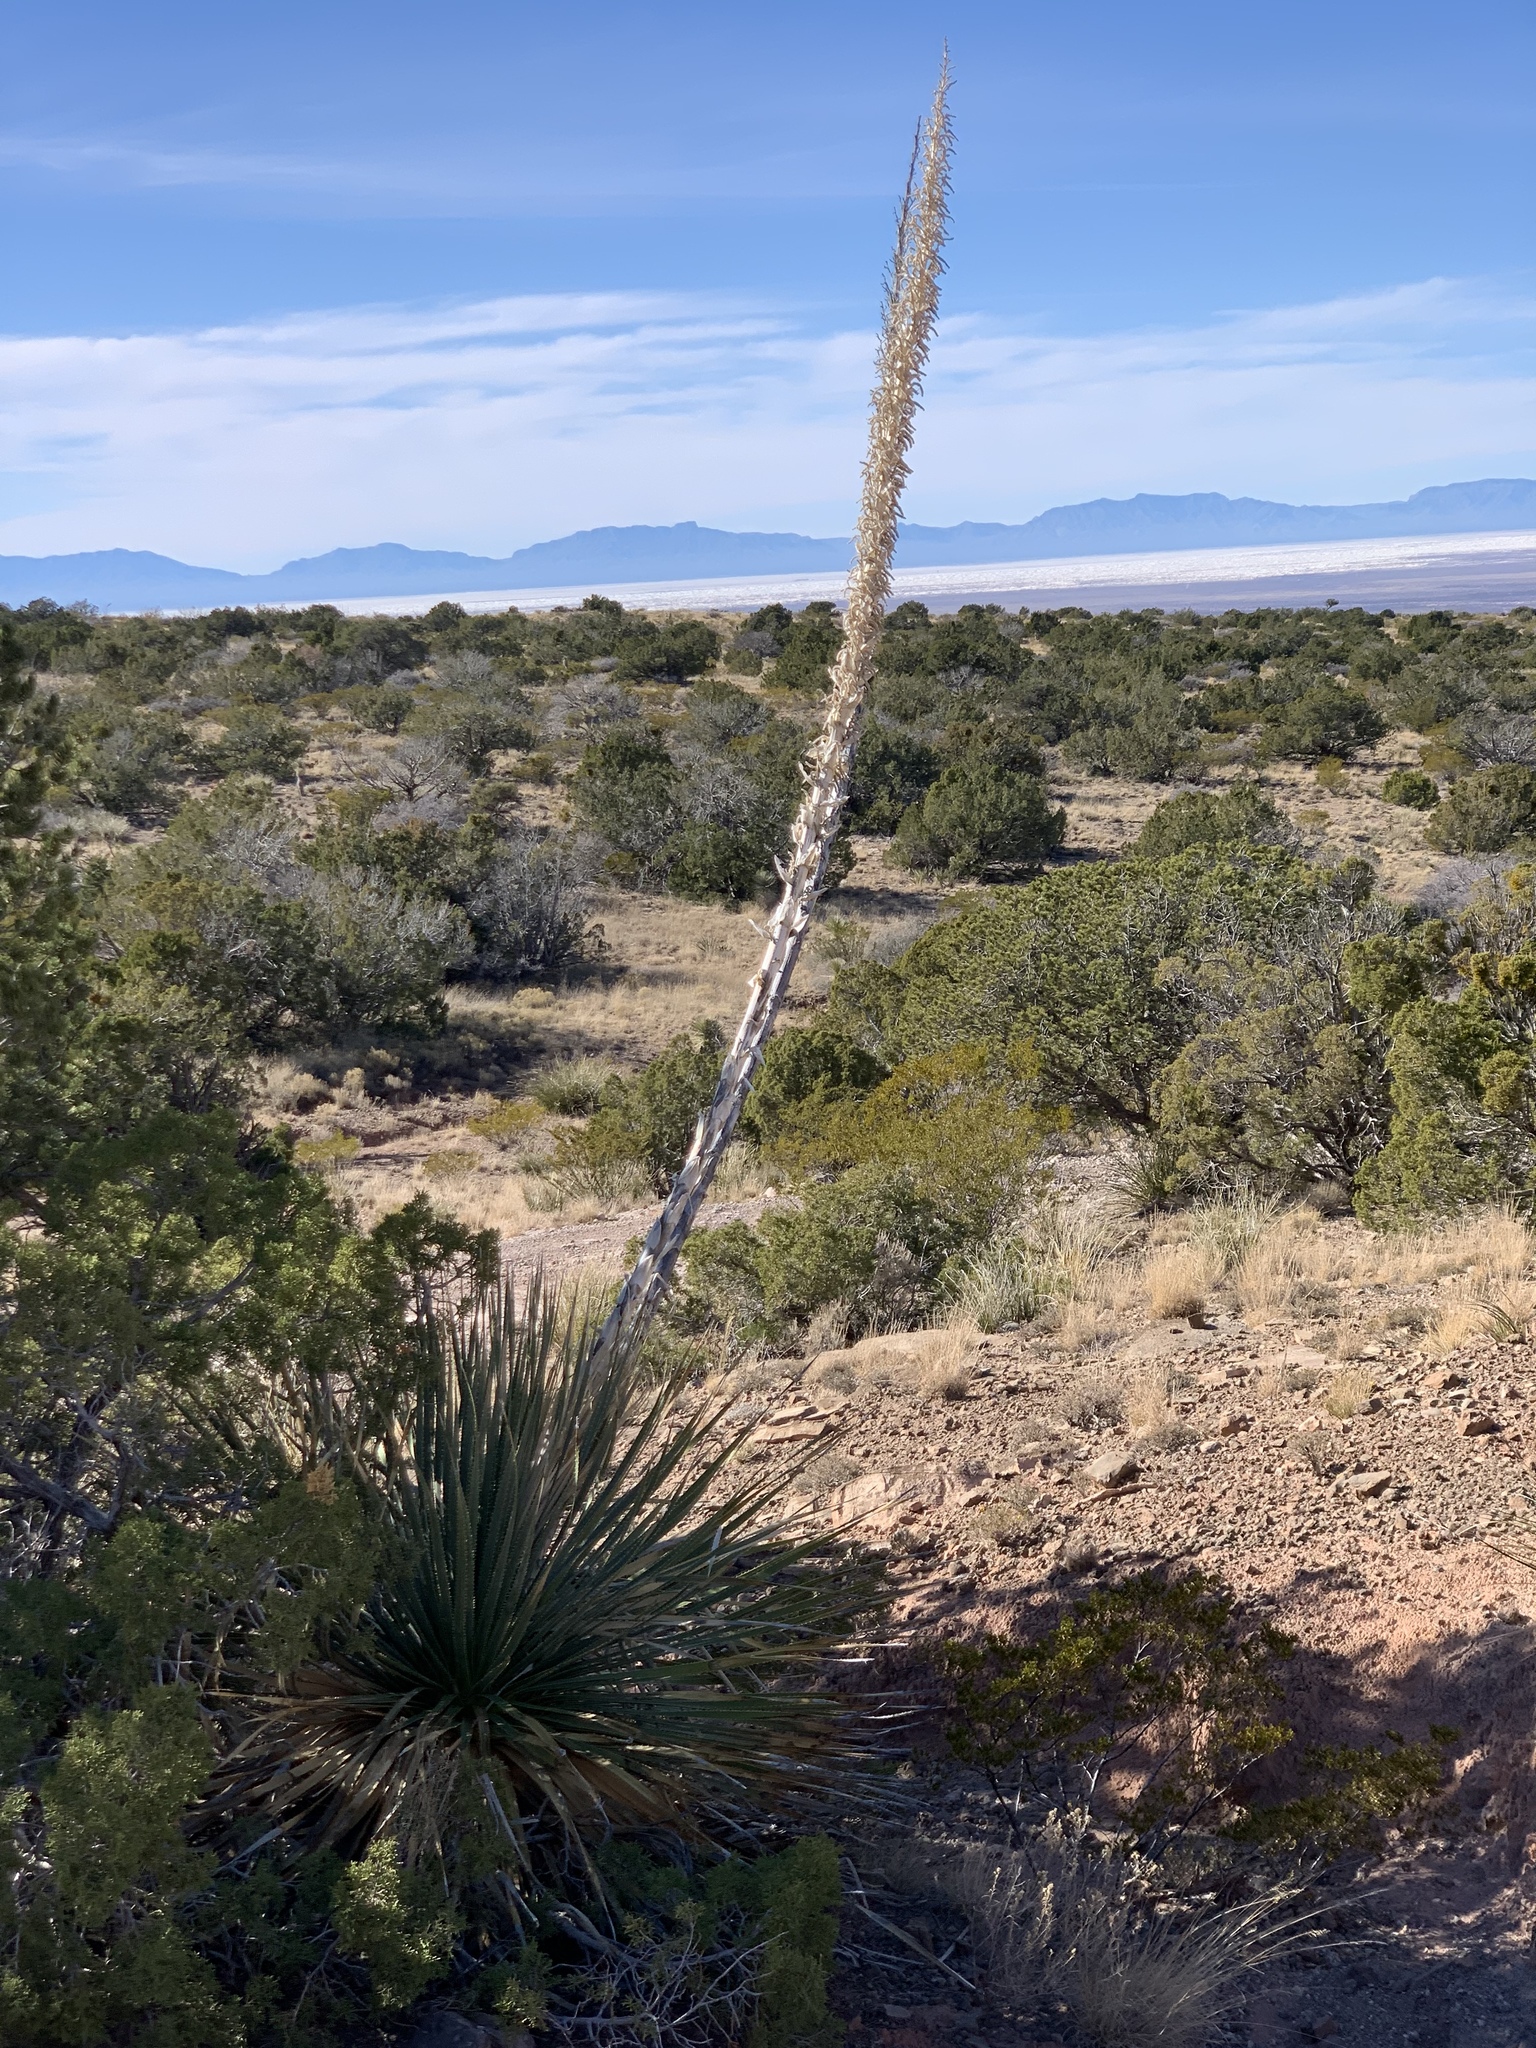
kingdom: Plantae
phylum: Tracheophyta
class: Liliopsida
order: Asparagales
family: Asparagaceae
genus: Dasylirion
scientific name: Dasylirion wheeleri
